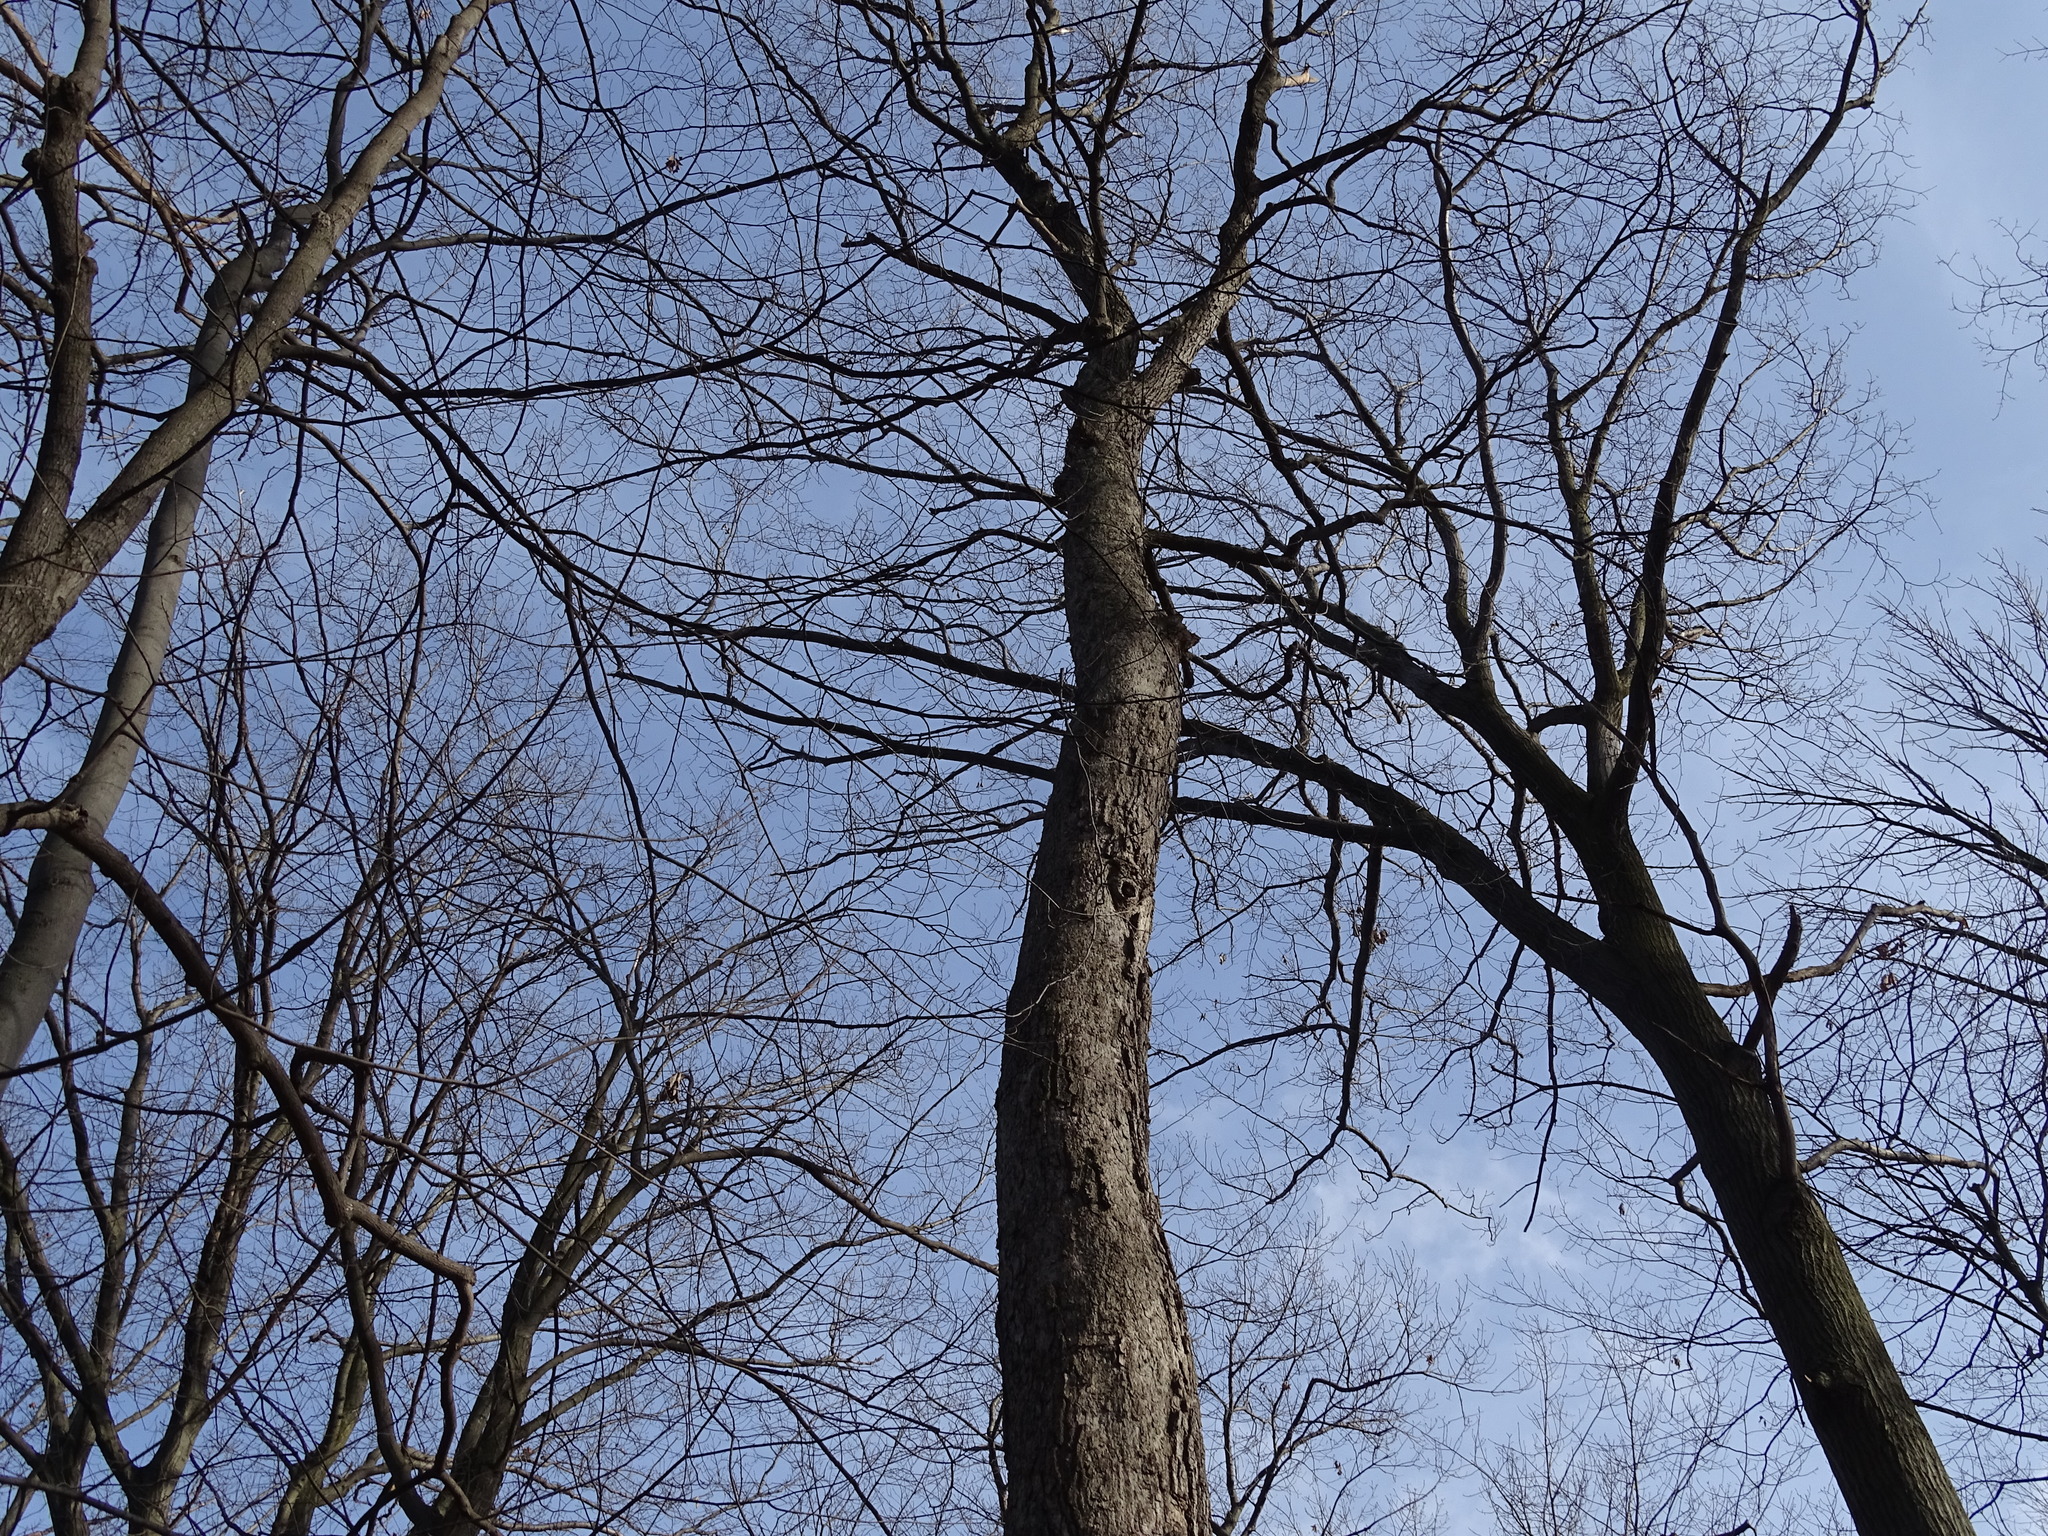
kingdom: Plantae
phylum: Tracheophyta
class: Magnoliopsida
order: Sapindales
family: Sapindaceae
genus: Acer
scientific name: Acer saccharum
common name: Sugar maple
